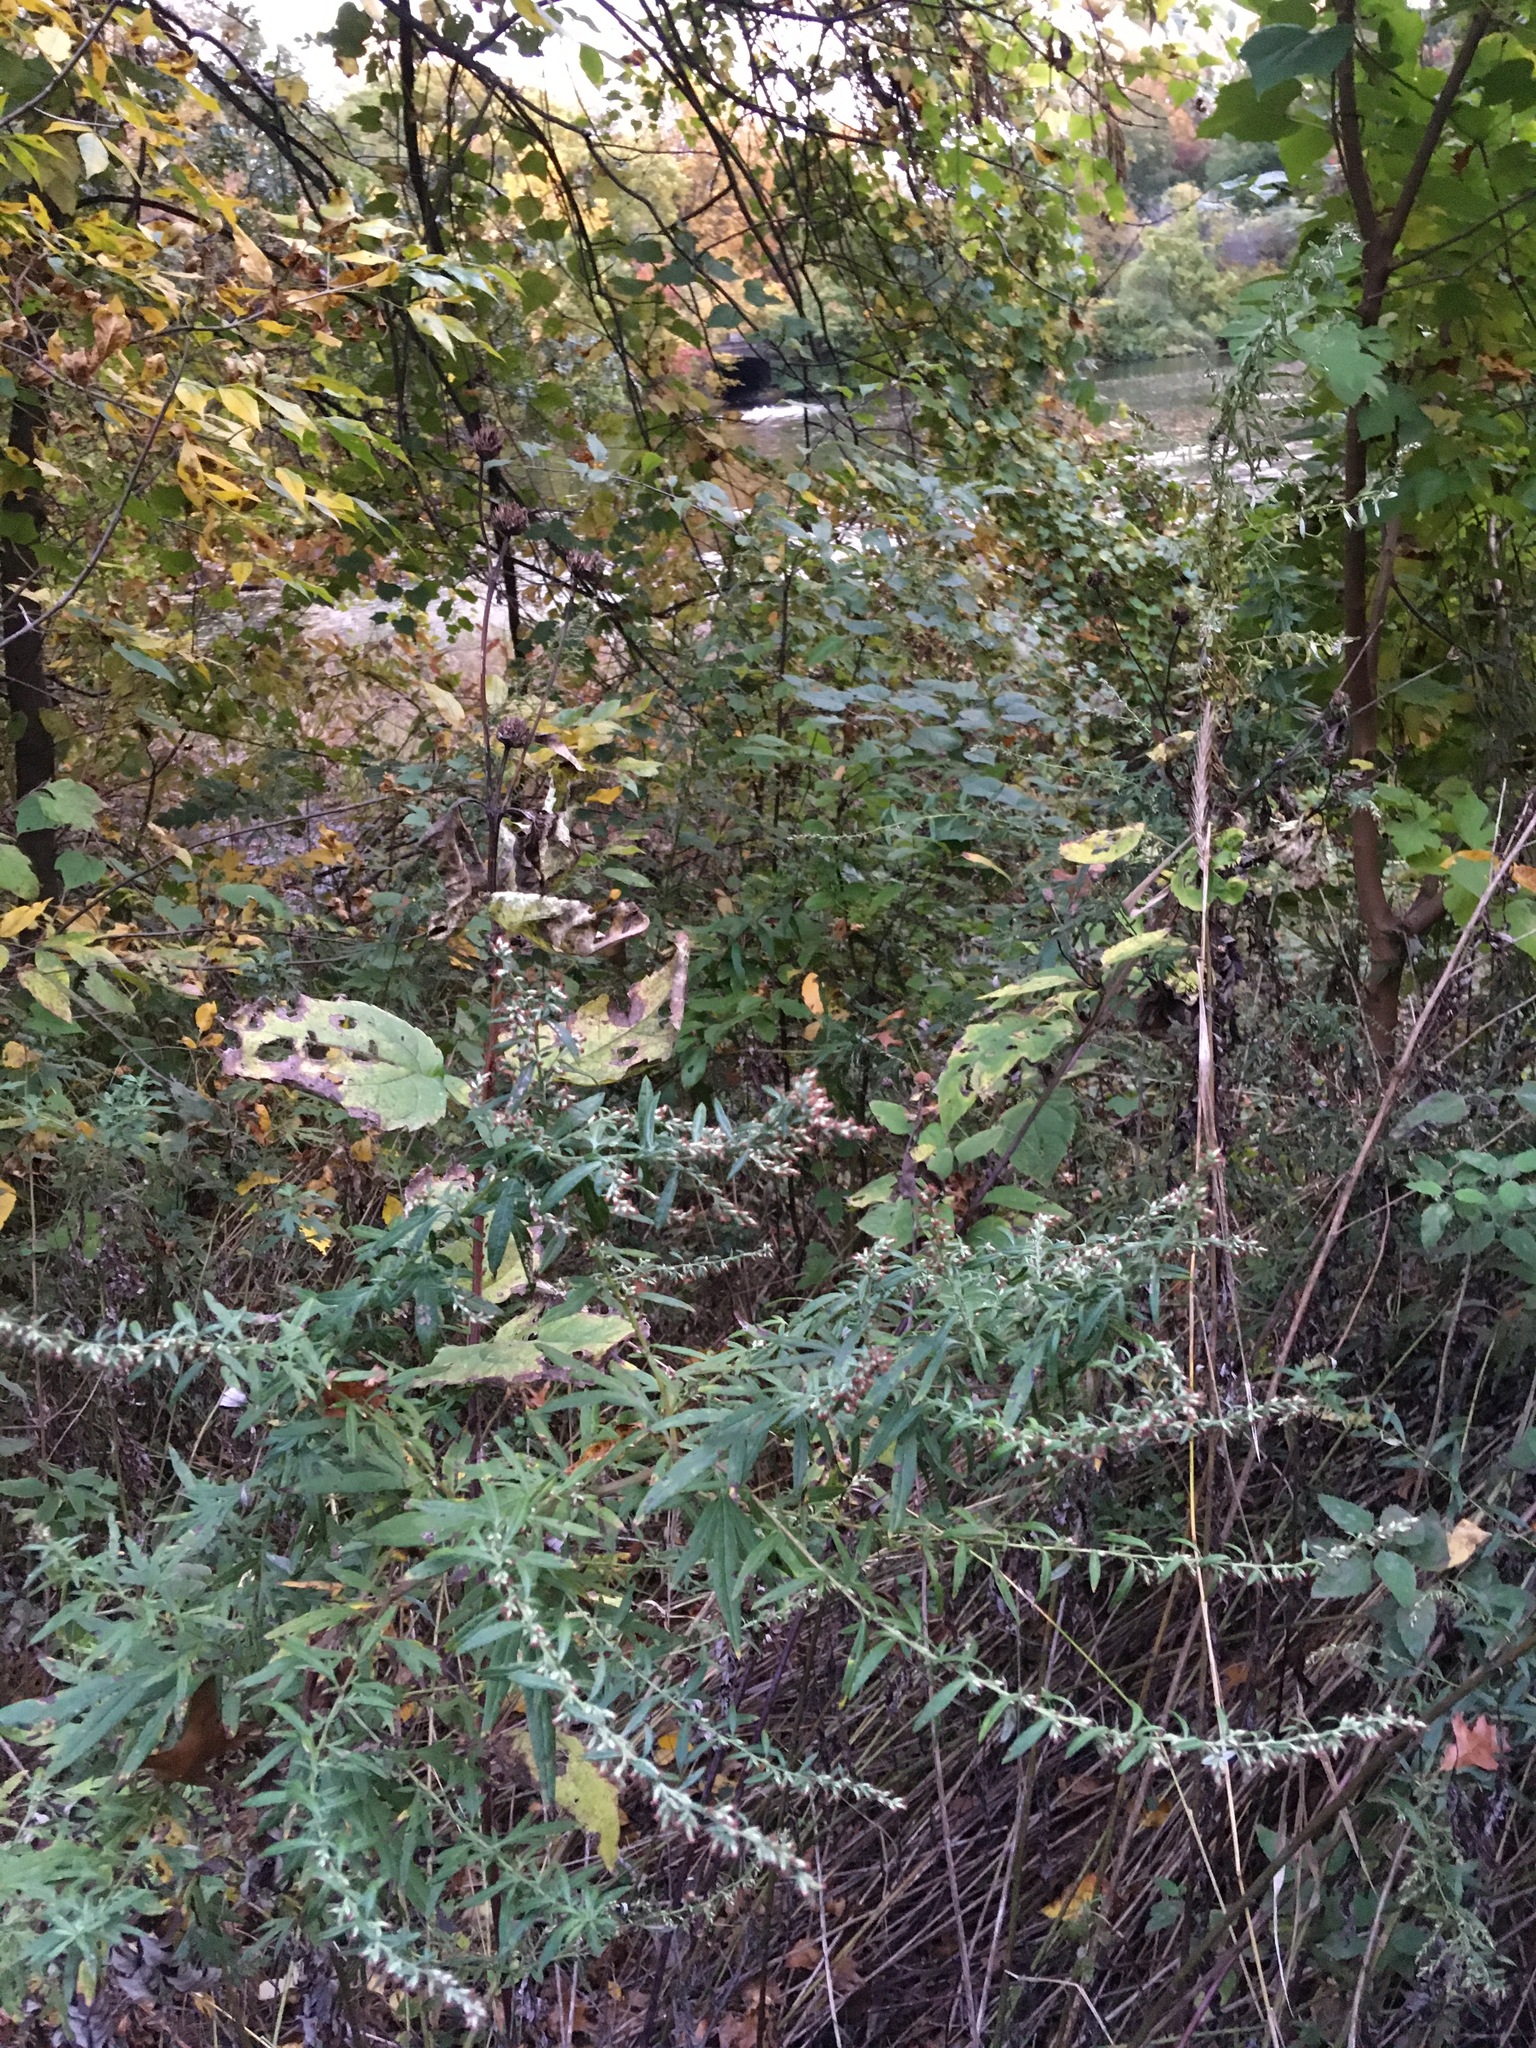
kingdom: Plantae
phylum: Tracheophyta
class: Magnoliopsida
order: Asterales
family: Asteraceae
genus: Artemisia
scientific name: Artemisia vulgaris
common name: Mugwort
